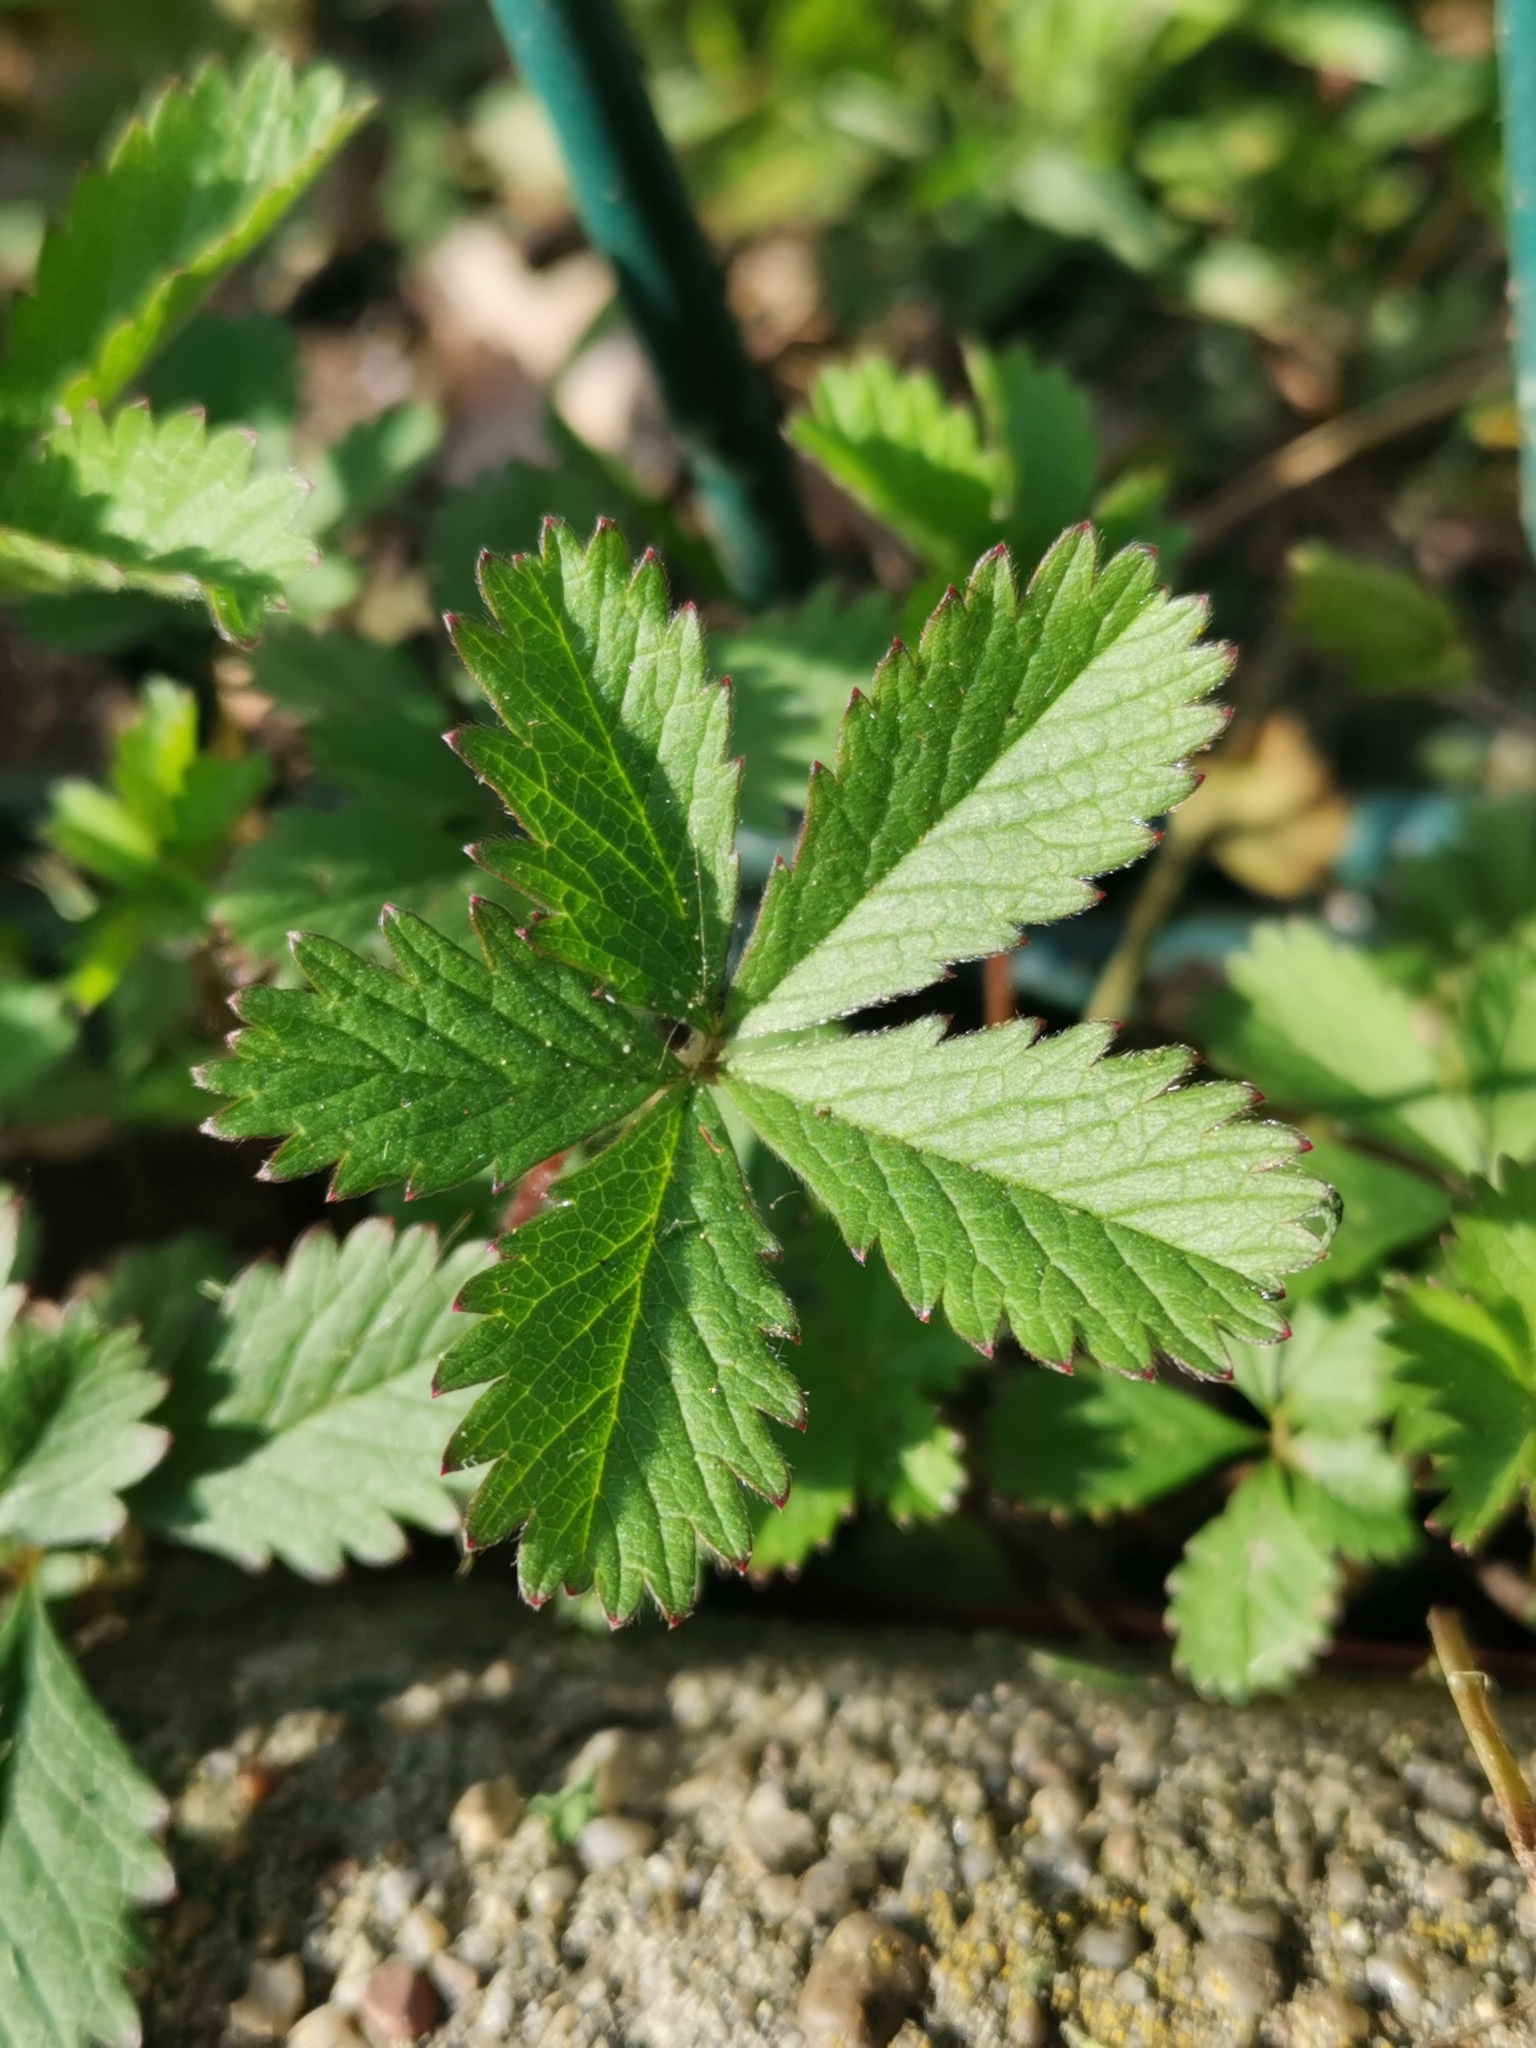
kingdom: Plantae
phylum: Tracheophyta
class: Magnoliopsida
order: Rosales
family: Rosaceae
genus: Potentilla
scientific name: Potentilla reptans
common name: Creeping cinquefoil
